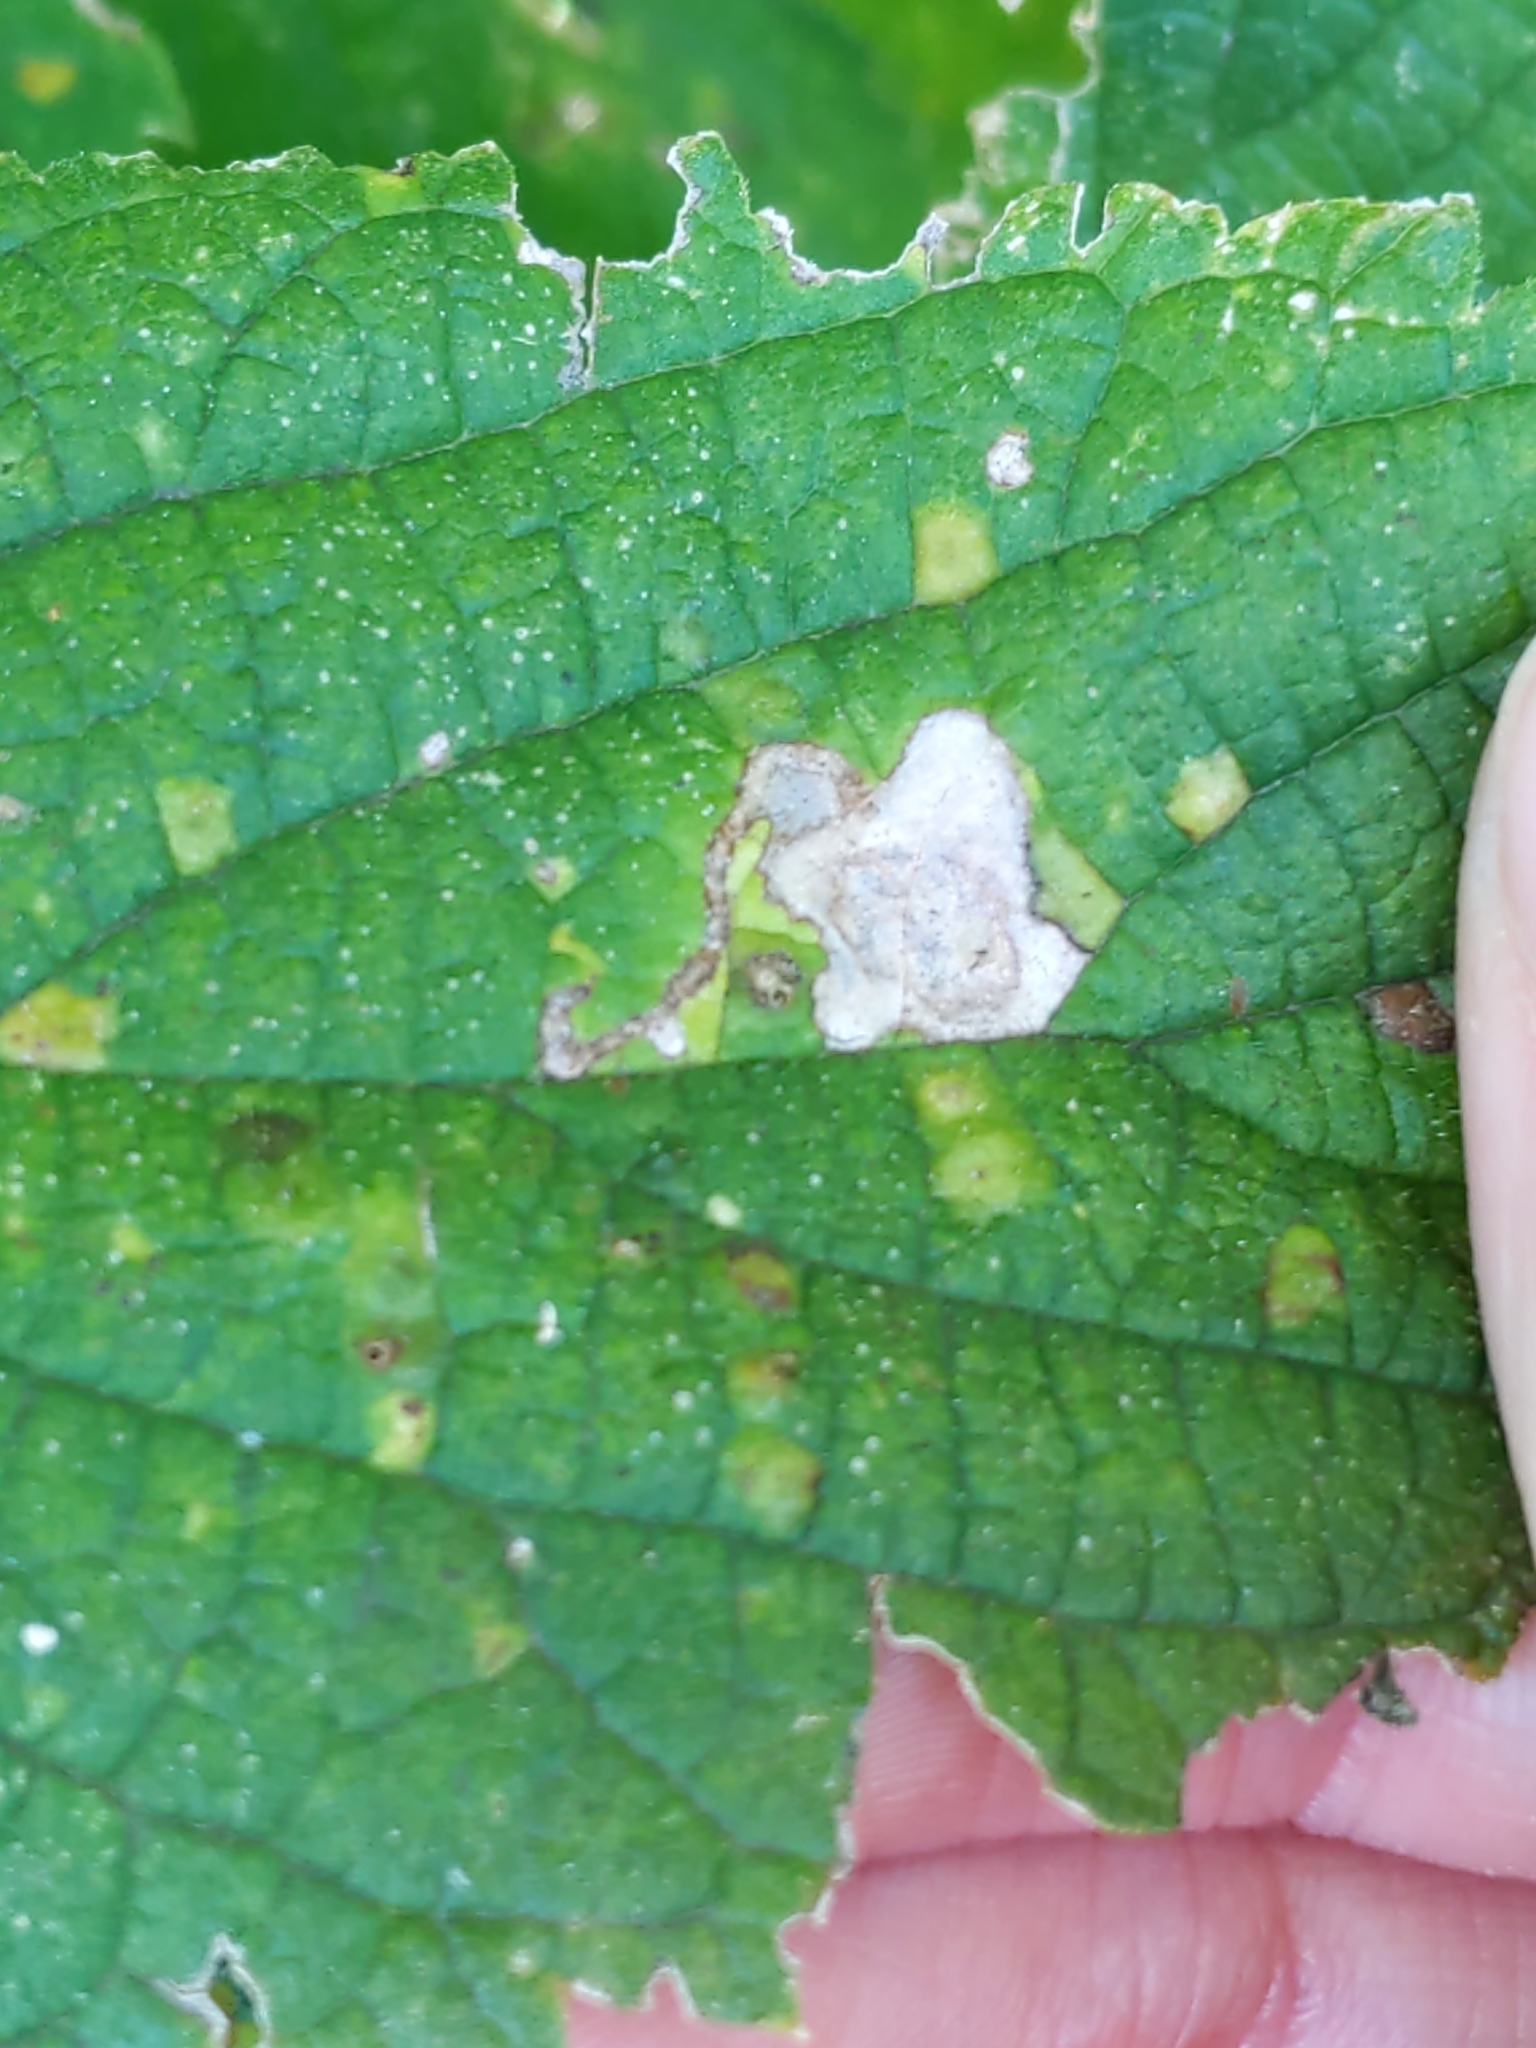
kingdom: Animalia
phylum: Arthropoda
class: Insecta
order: Hemiptera
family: Aphalaridae
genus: Pachypsylla
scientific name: Pachypsylla celtidisvesicula
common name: Hackberry blister gall psyllid
